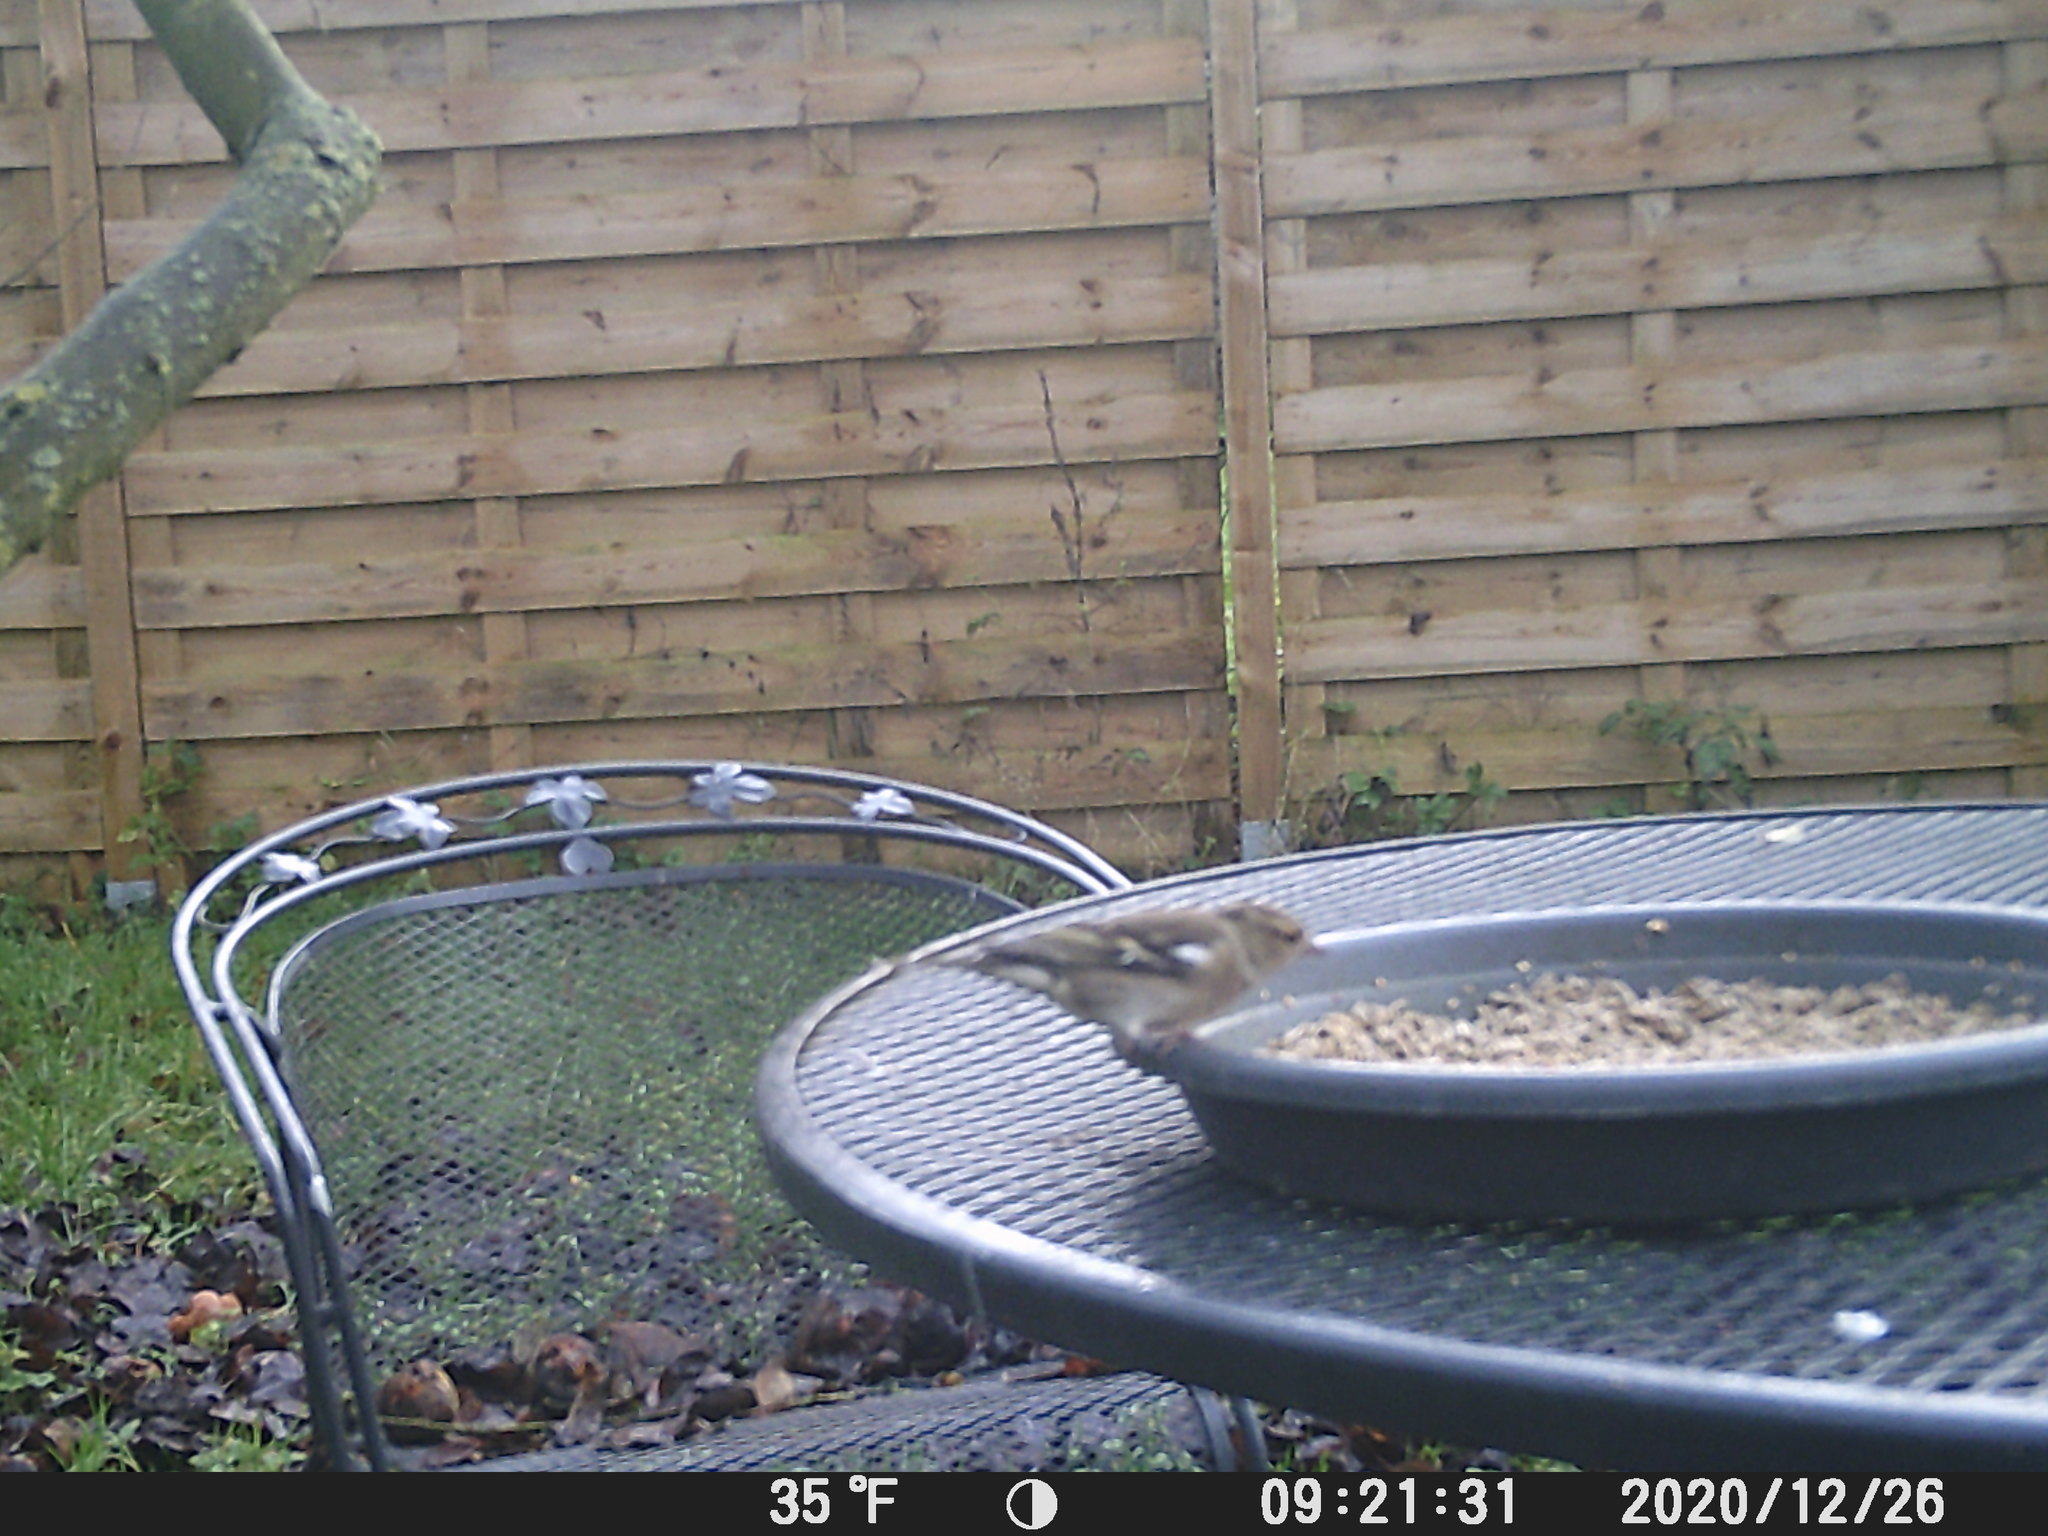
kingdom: Animalia
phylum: Chordata
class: Aves
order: Passeriformes
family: Fringillidae
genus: Fringilla
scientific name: Fringilla coelebs
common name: Common chaffinch
